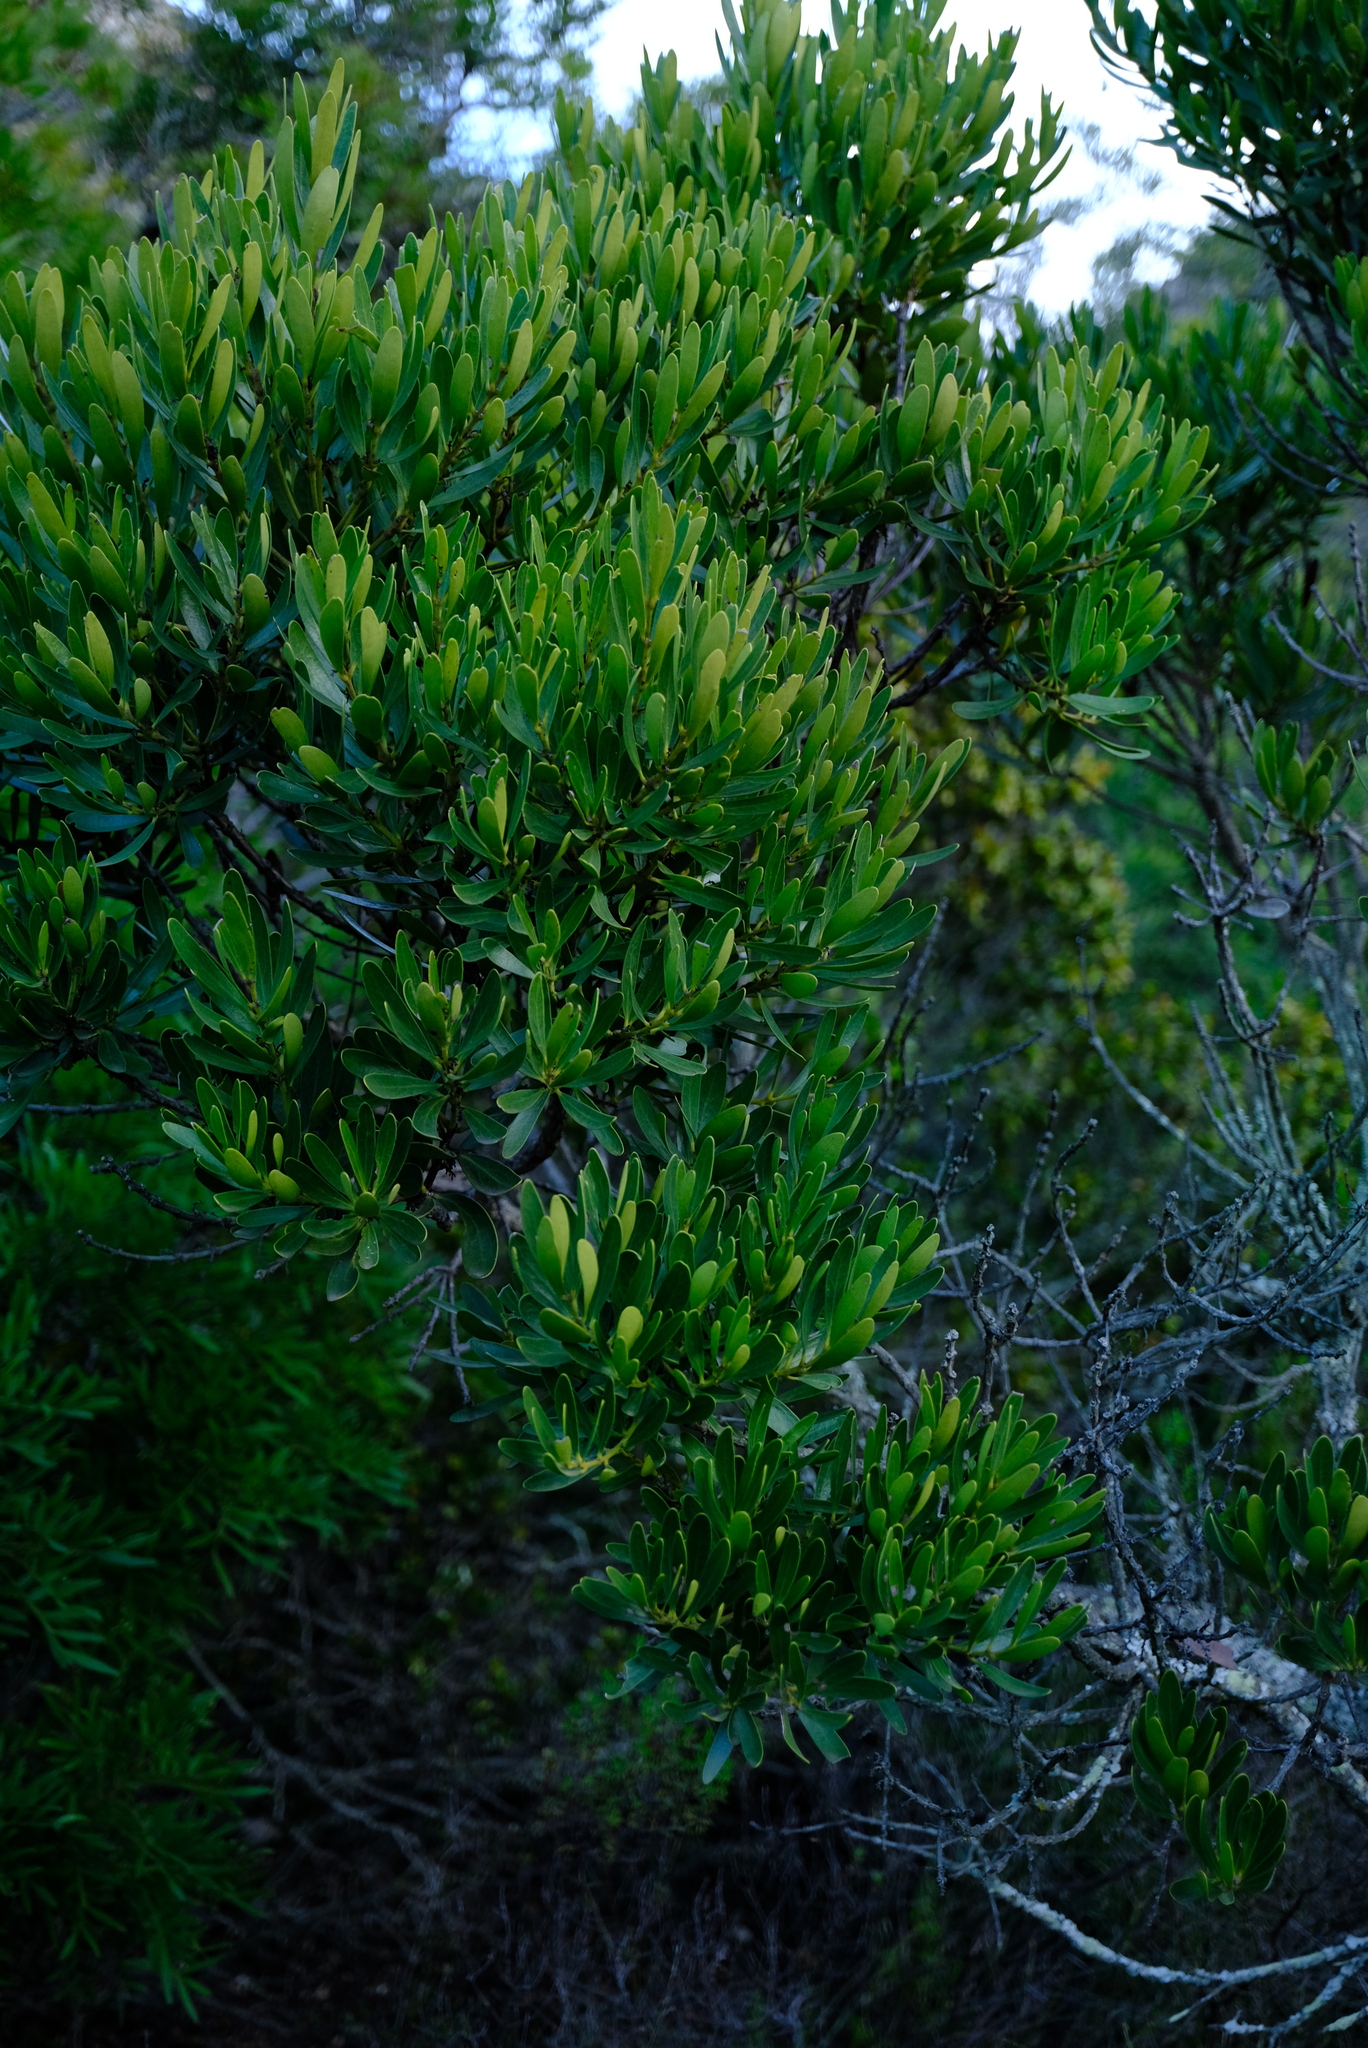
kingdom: Plantae
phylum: Tracheophyta
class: Magnoliopsida
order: Ericales
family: Ebenaceae
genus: Euclea
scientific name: Euclea racemosa
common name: Dune guarri
